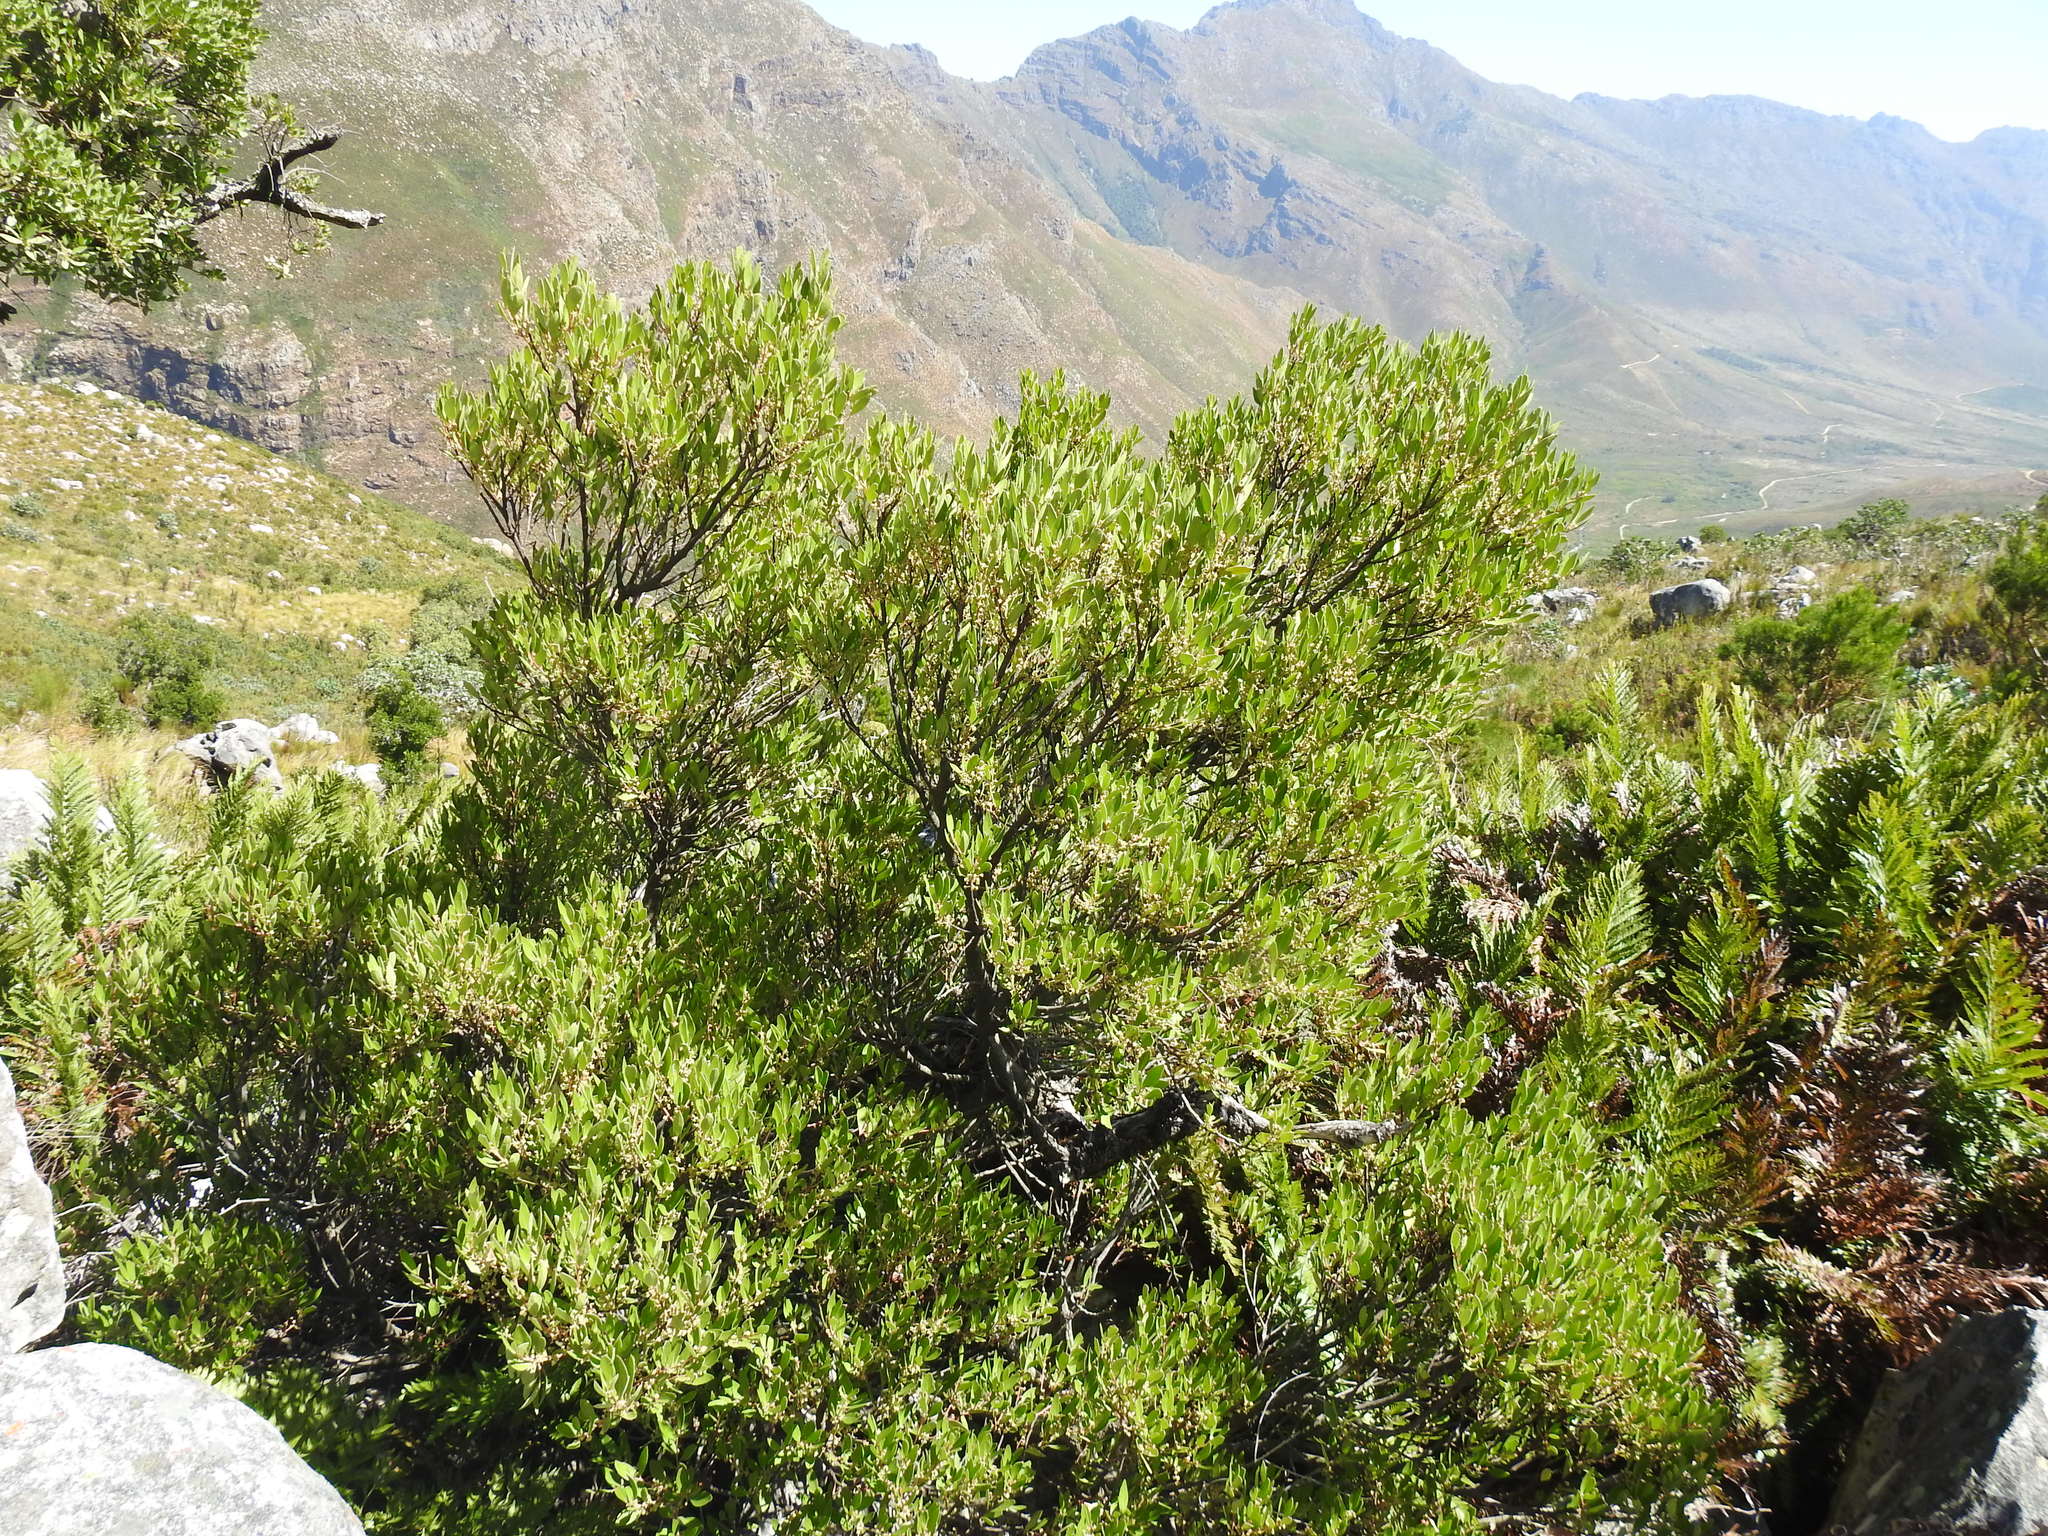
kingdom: Plantae
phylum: Tracheophyta
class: Magnoliopsida
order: Celastrales
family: Celastraceae
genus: Gymnosporia
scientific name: Gymnosporia laurina
